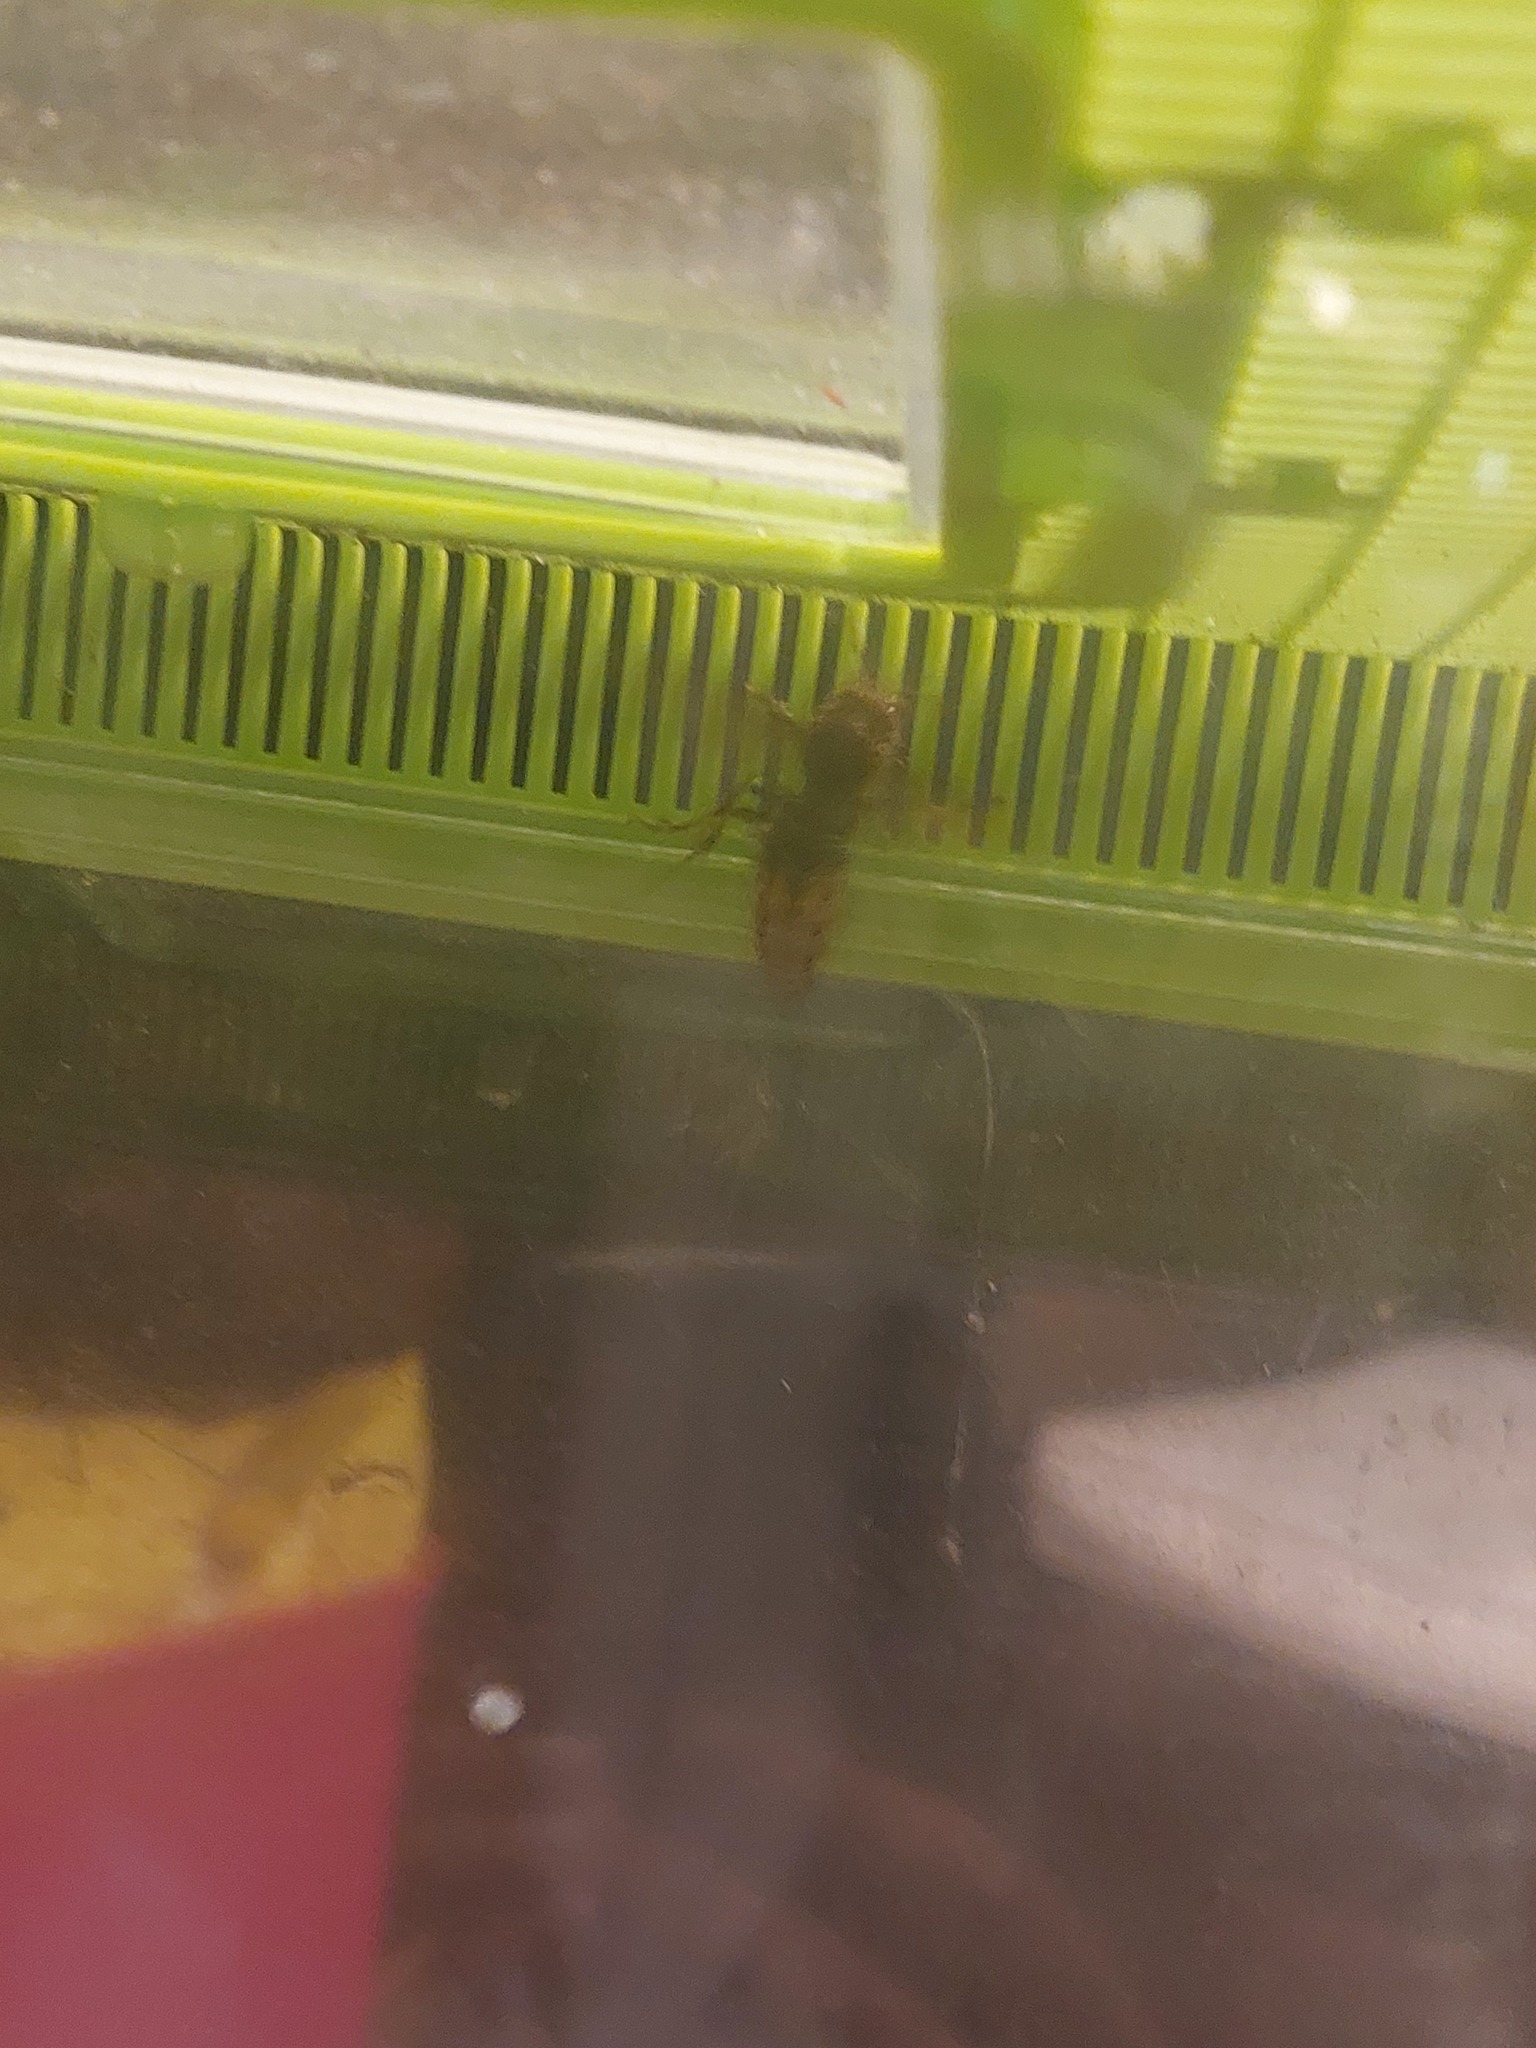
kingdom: Animalia
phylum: Arthropoda
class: Insecta
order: Hymenoptera
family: Vespidae
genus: Vespa
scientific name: Vespa crabro
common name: Hornet
